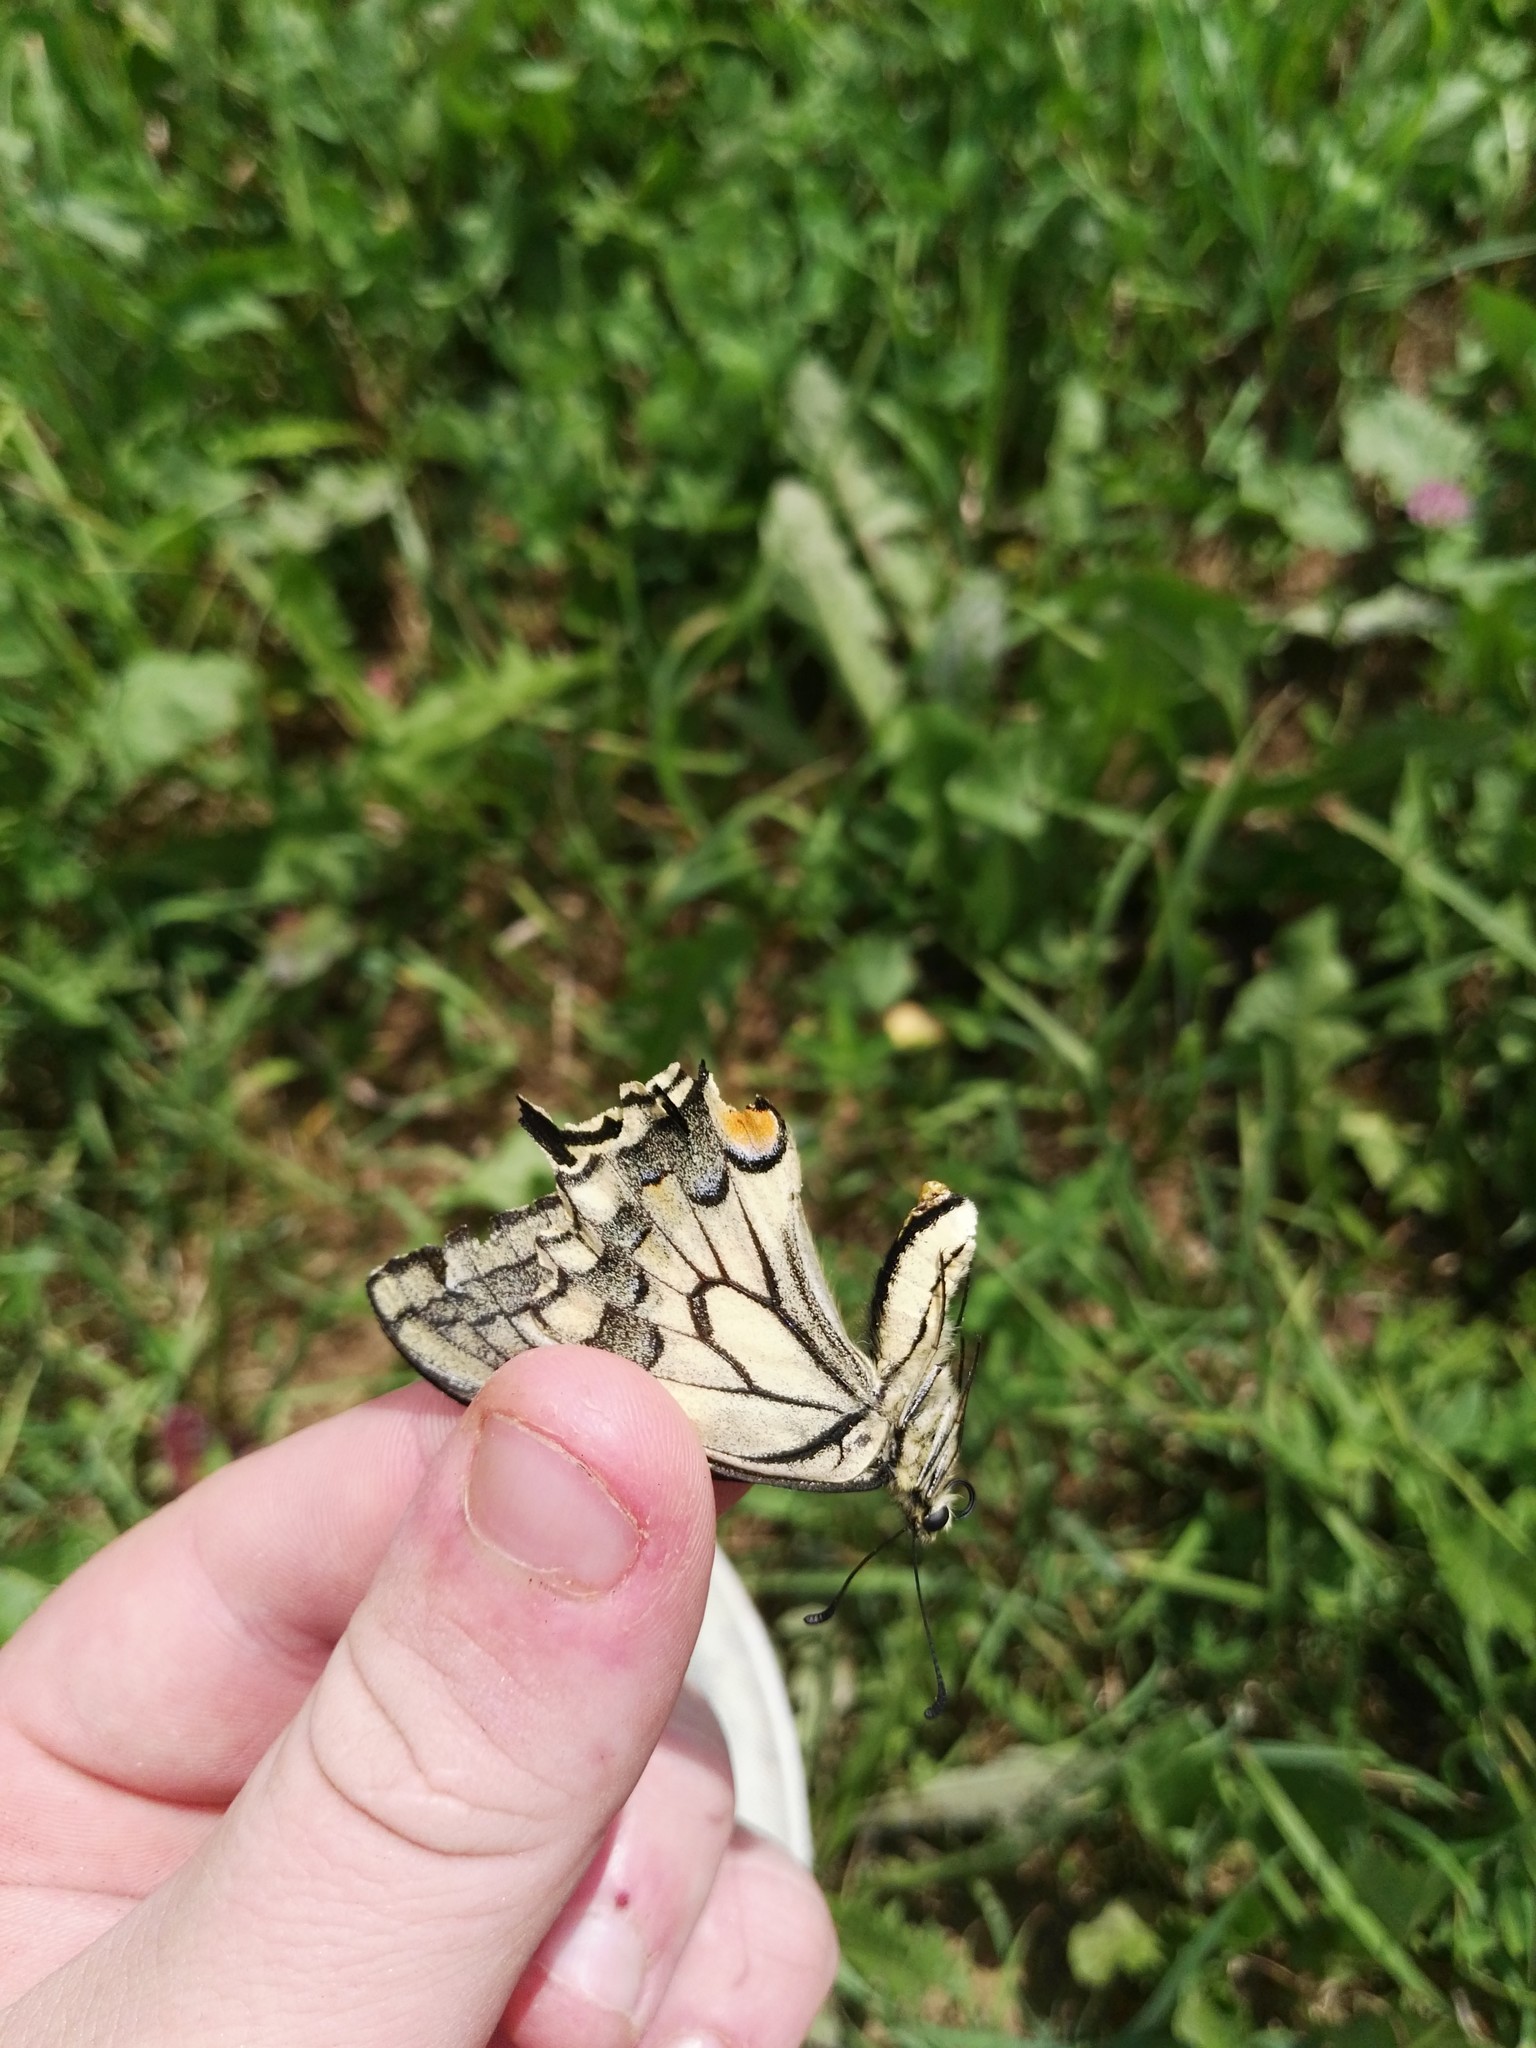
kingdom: Animalia
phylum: Arthropoda
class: Insecta
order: Lepidoptera
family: Papilionidae
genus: Papilio
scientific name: Papilio machaon
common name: Swallowtail
